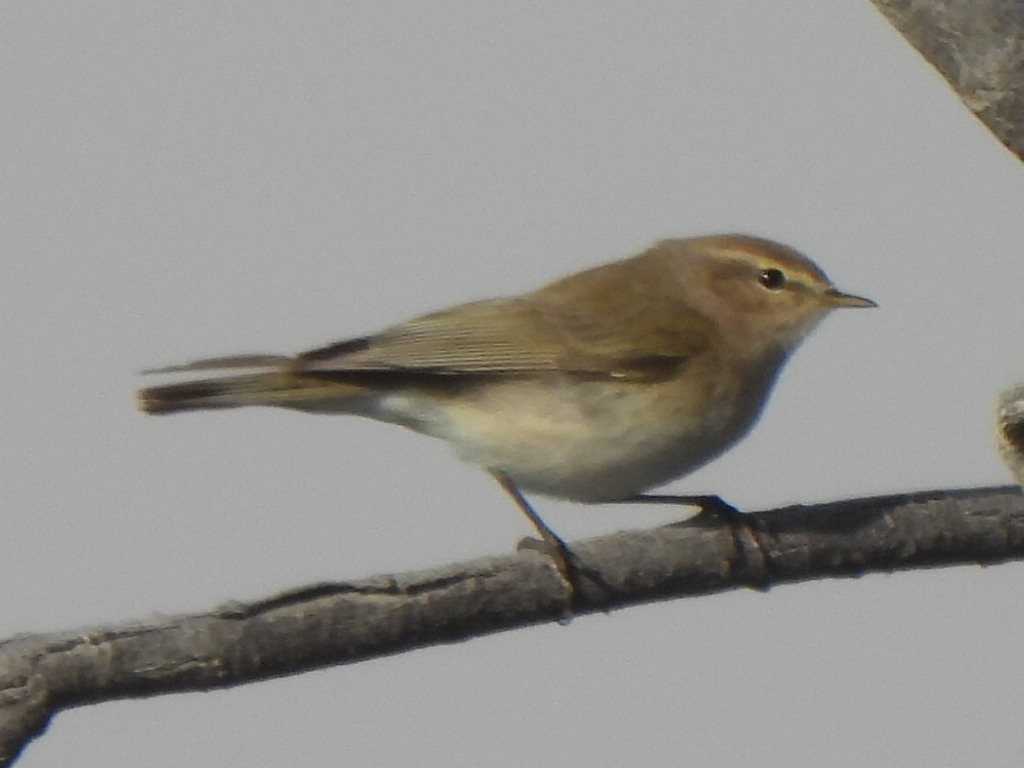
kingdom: Animalia
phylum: Chordata
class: Aves
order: Passeriformes
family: Phylloscopidae
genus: Phylloscopus
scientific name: Phylloscopus collybita
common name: Common chiffchaff
